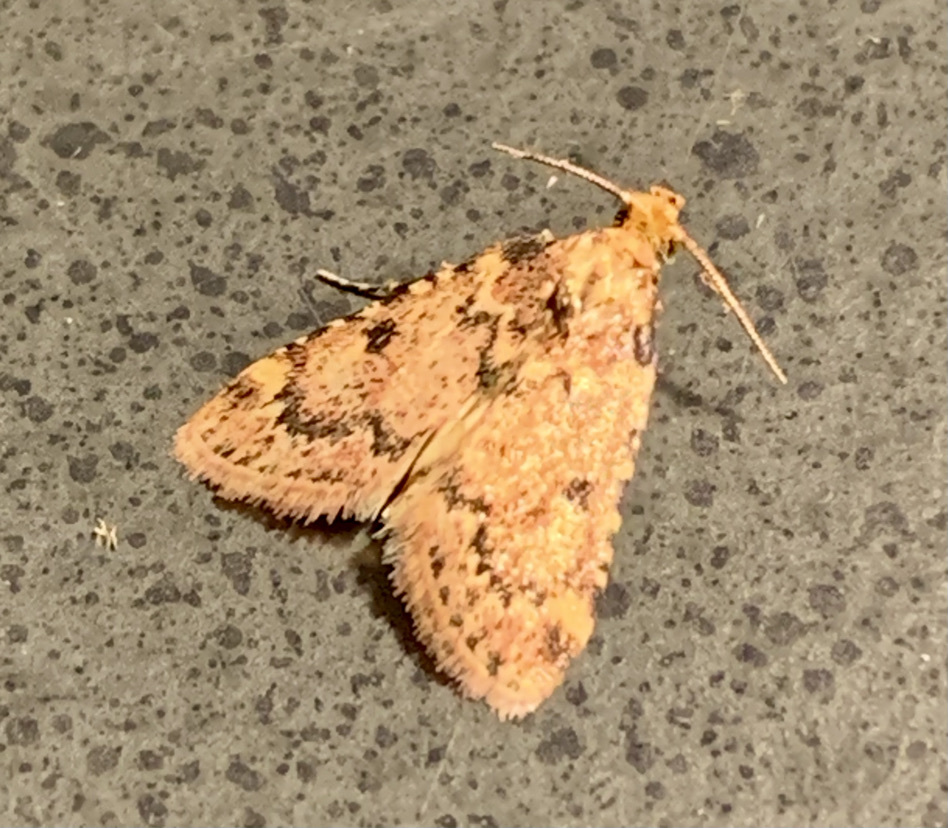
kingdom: Animalia
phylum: Arthropoda
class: Insecta
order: Lepidoptera
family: Pyralidae
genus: Aglossa
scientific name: Aglossa disciferalis
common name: Pink-masked pyralid moth
